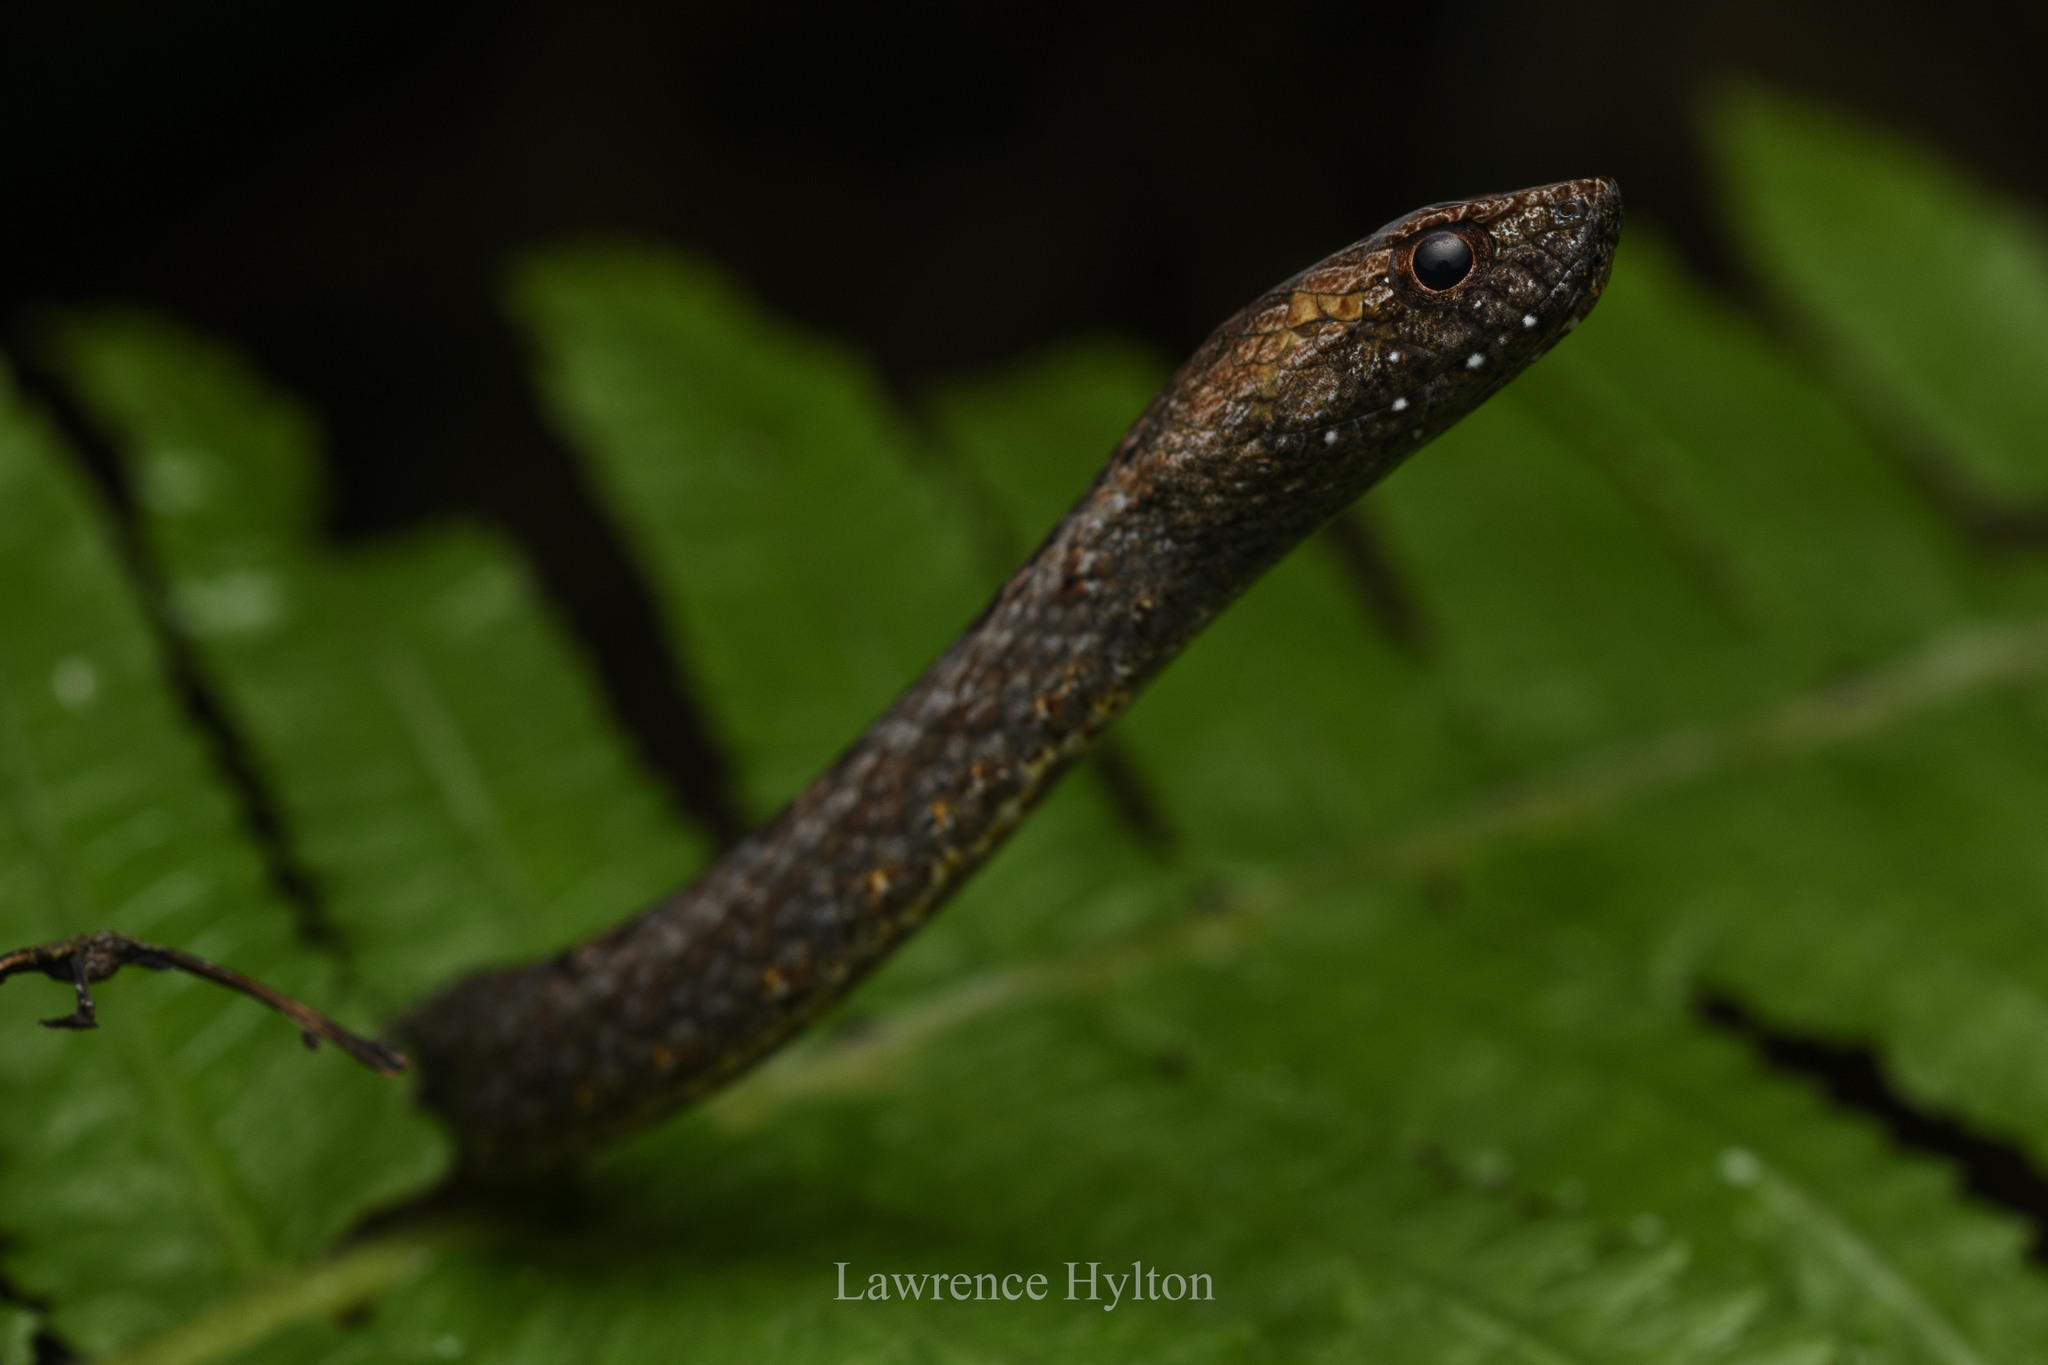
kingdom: Animalia
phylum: Chordata
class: Squamata
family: Pseudaspididae
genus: Psammodynastes
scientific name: Psammodynastes pulverulentus
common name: Common mock viper
